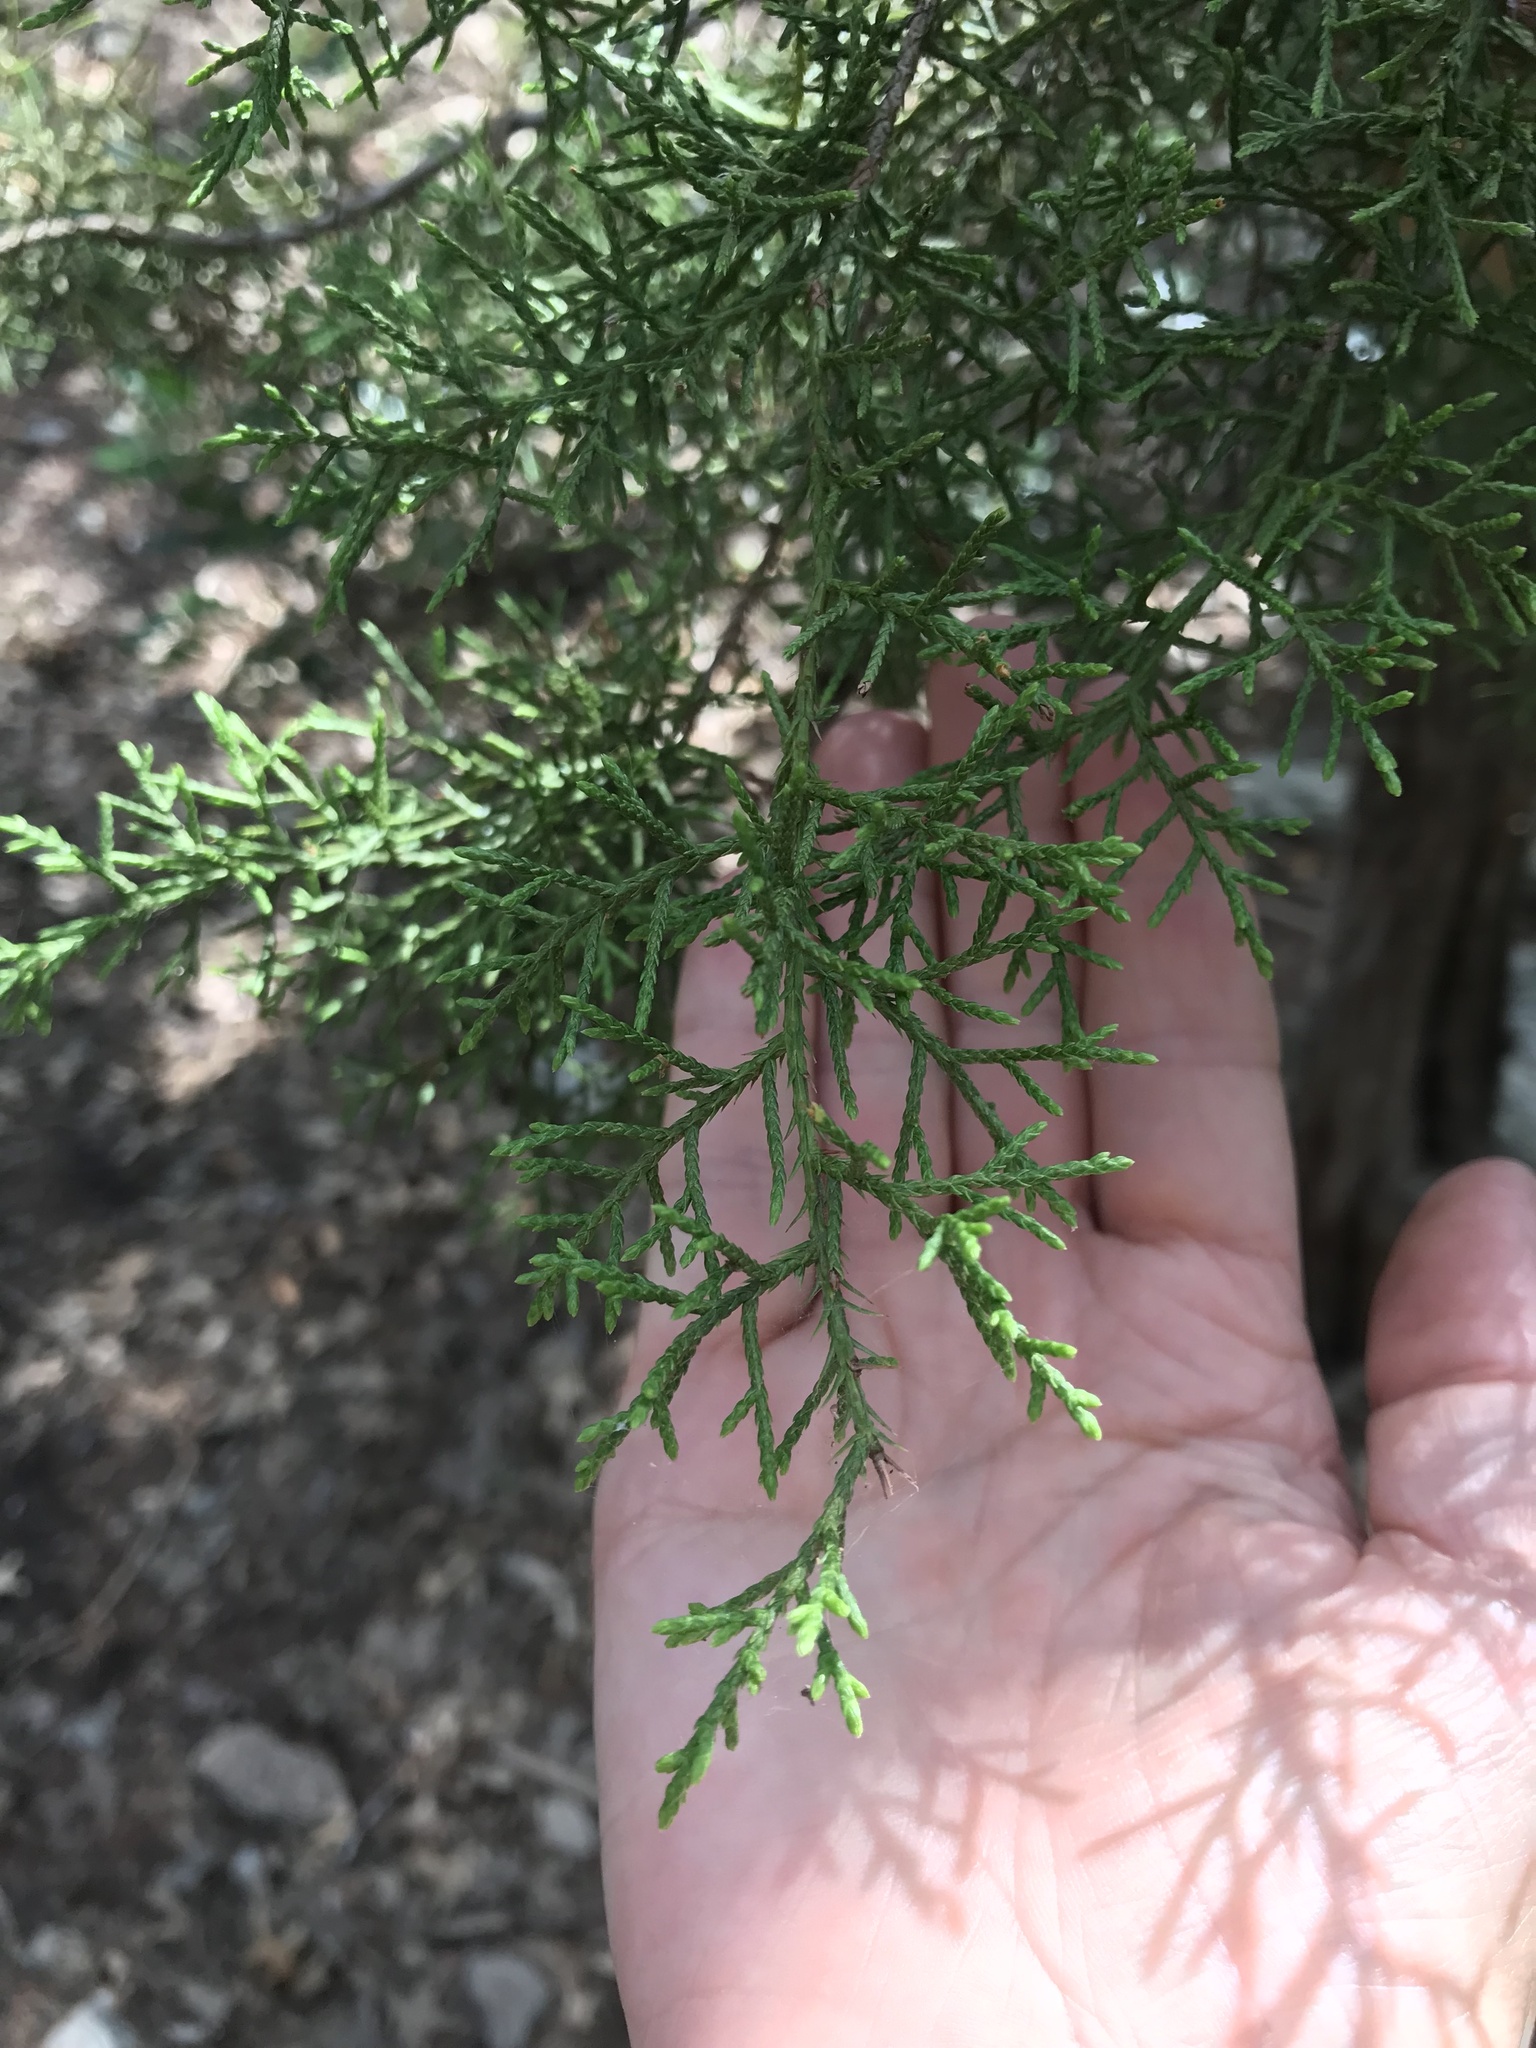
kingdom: Plantae
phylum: Tracheophyta
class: Pinopsida
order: Pinales
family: Cupressaceae
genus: Juniperus
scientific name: Juniperus ashei
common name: Mexican juniper
